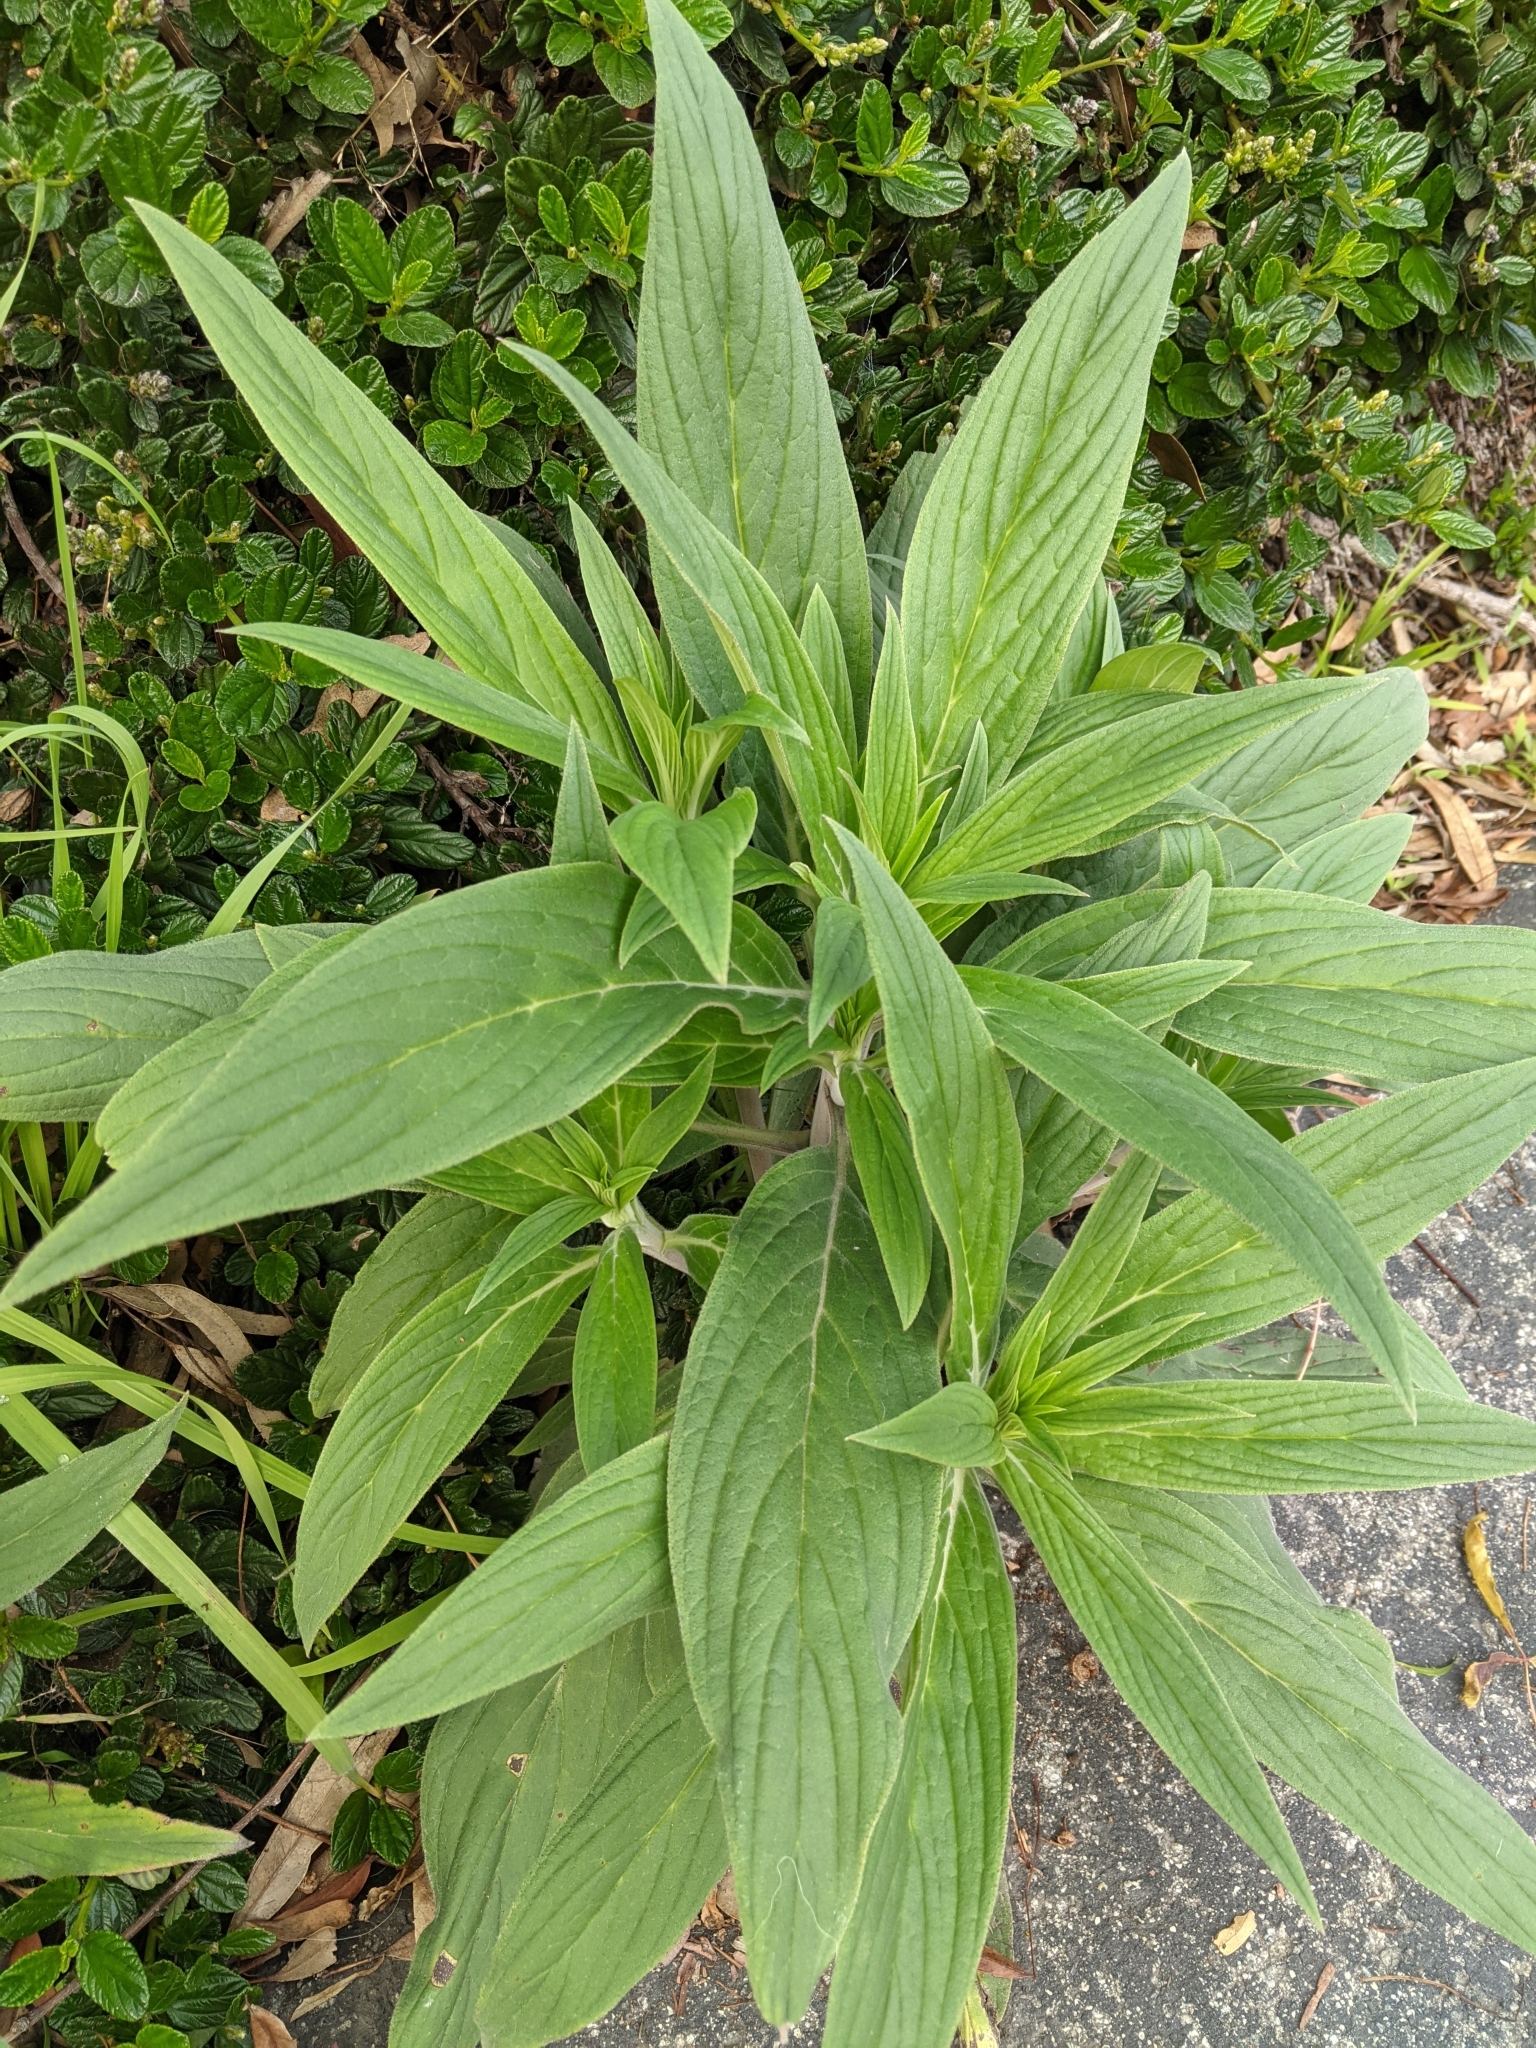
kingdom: Plantae
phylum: Tracheophyta
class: Magnoliopsida
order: Boraginales
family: Boraginaceae
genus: Echium
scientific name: Echium candicans
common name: Pride of madeira
